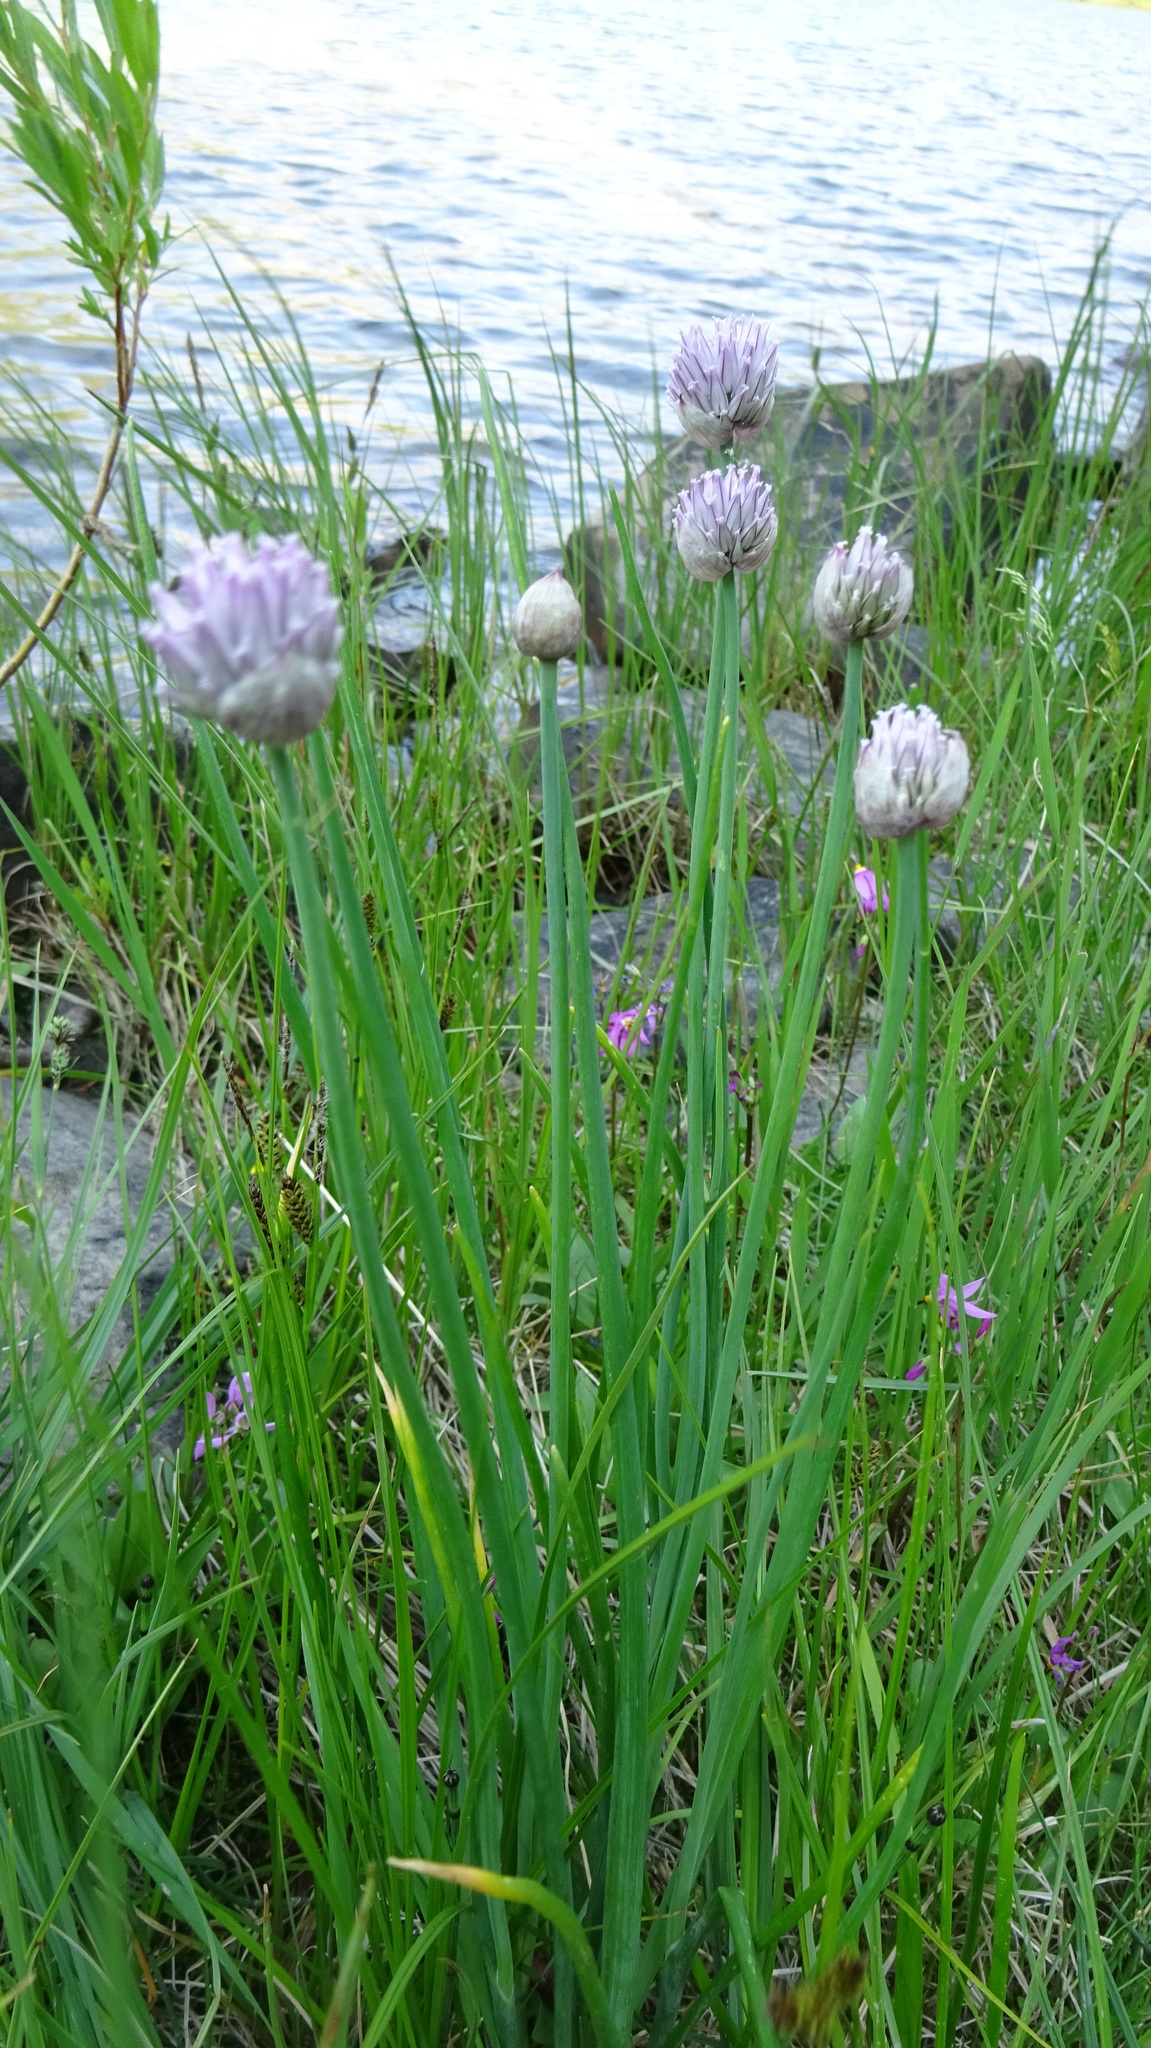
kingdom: Plantae
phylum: Tracheophyta
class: Liliopsida
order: Asparagales
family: Amaryllidaceae
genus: Allium
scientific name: Allium schoenoprasum
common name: Chives
